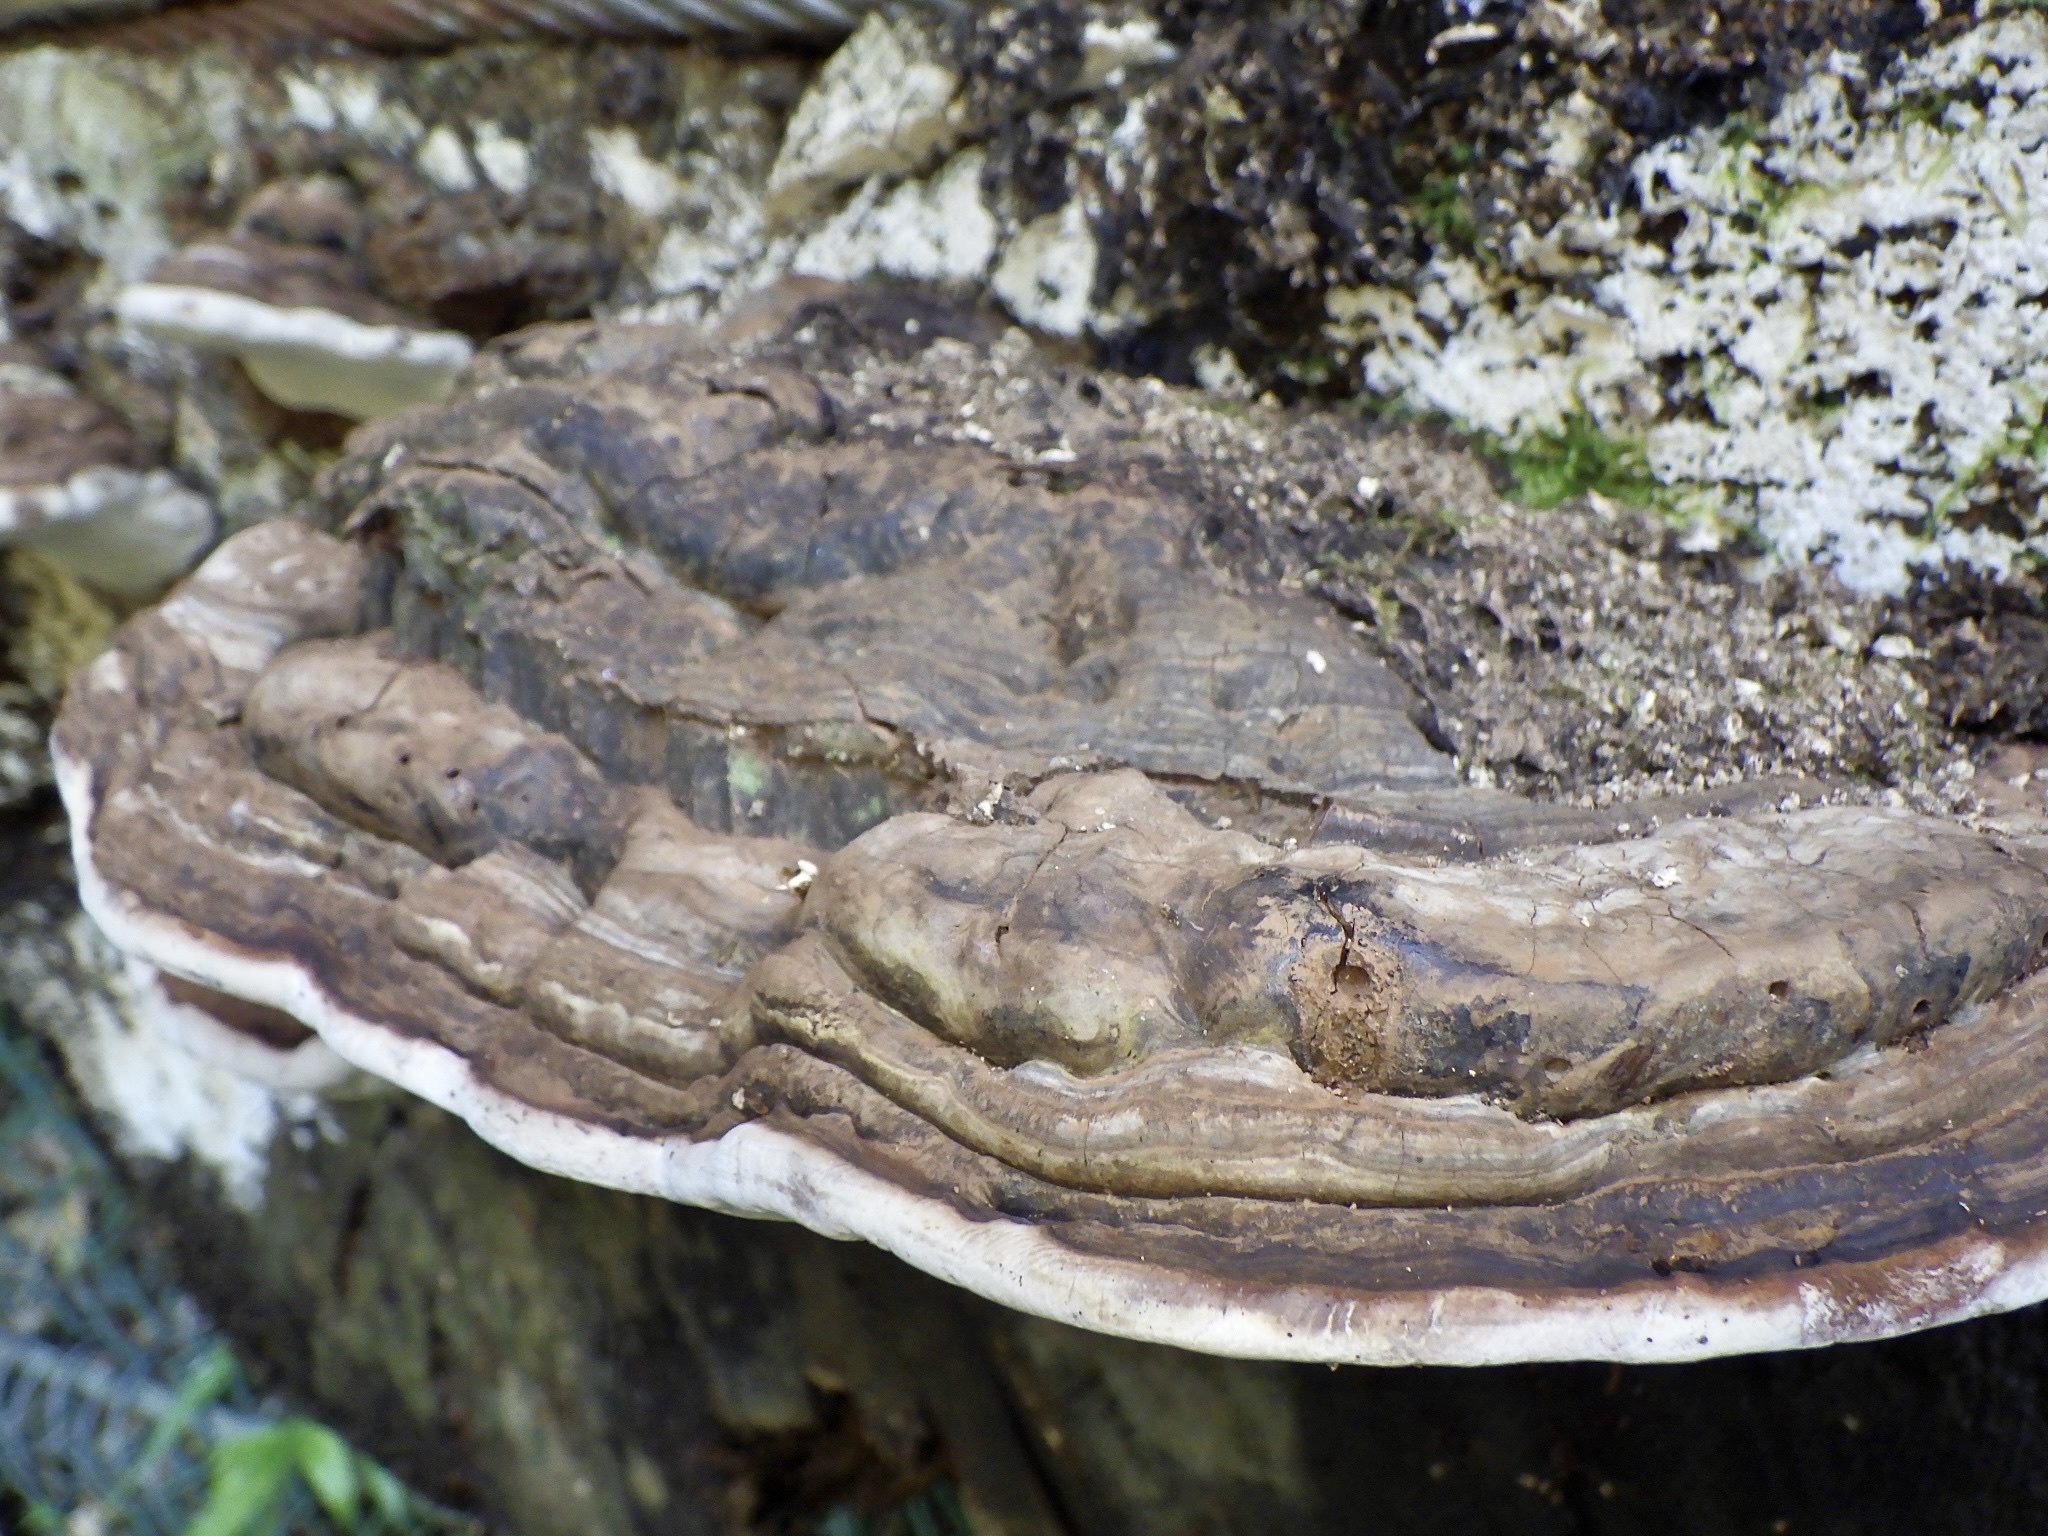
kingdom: Fungi
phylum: Basidiomycota
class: Agaricomycetes
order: Polyporales
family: Polyporaceae
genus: Ganoderma
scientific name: Ganoderma applanatum
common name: Artist's bracket
